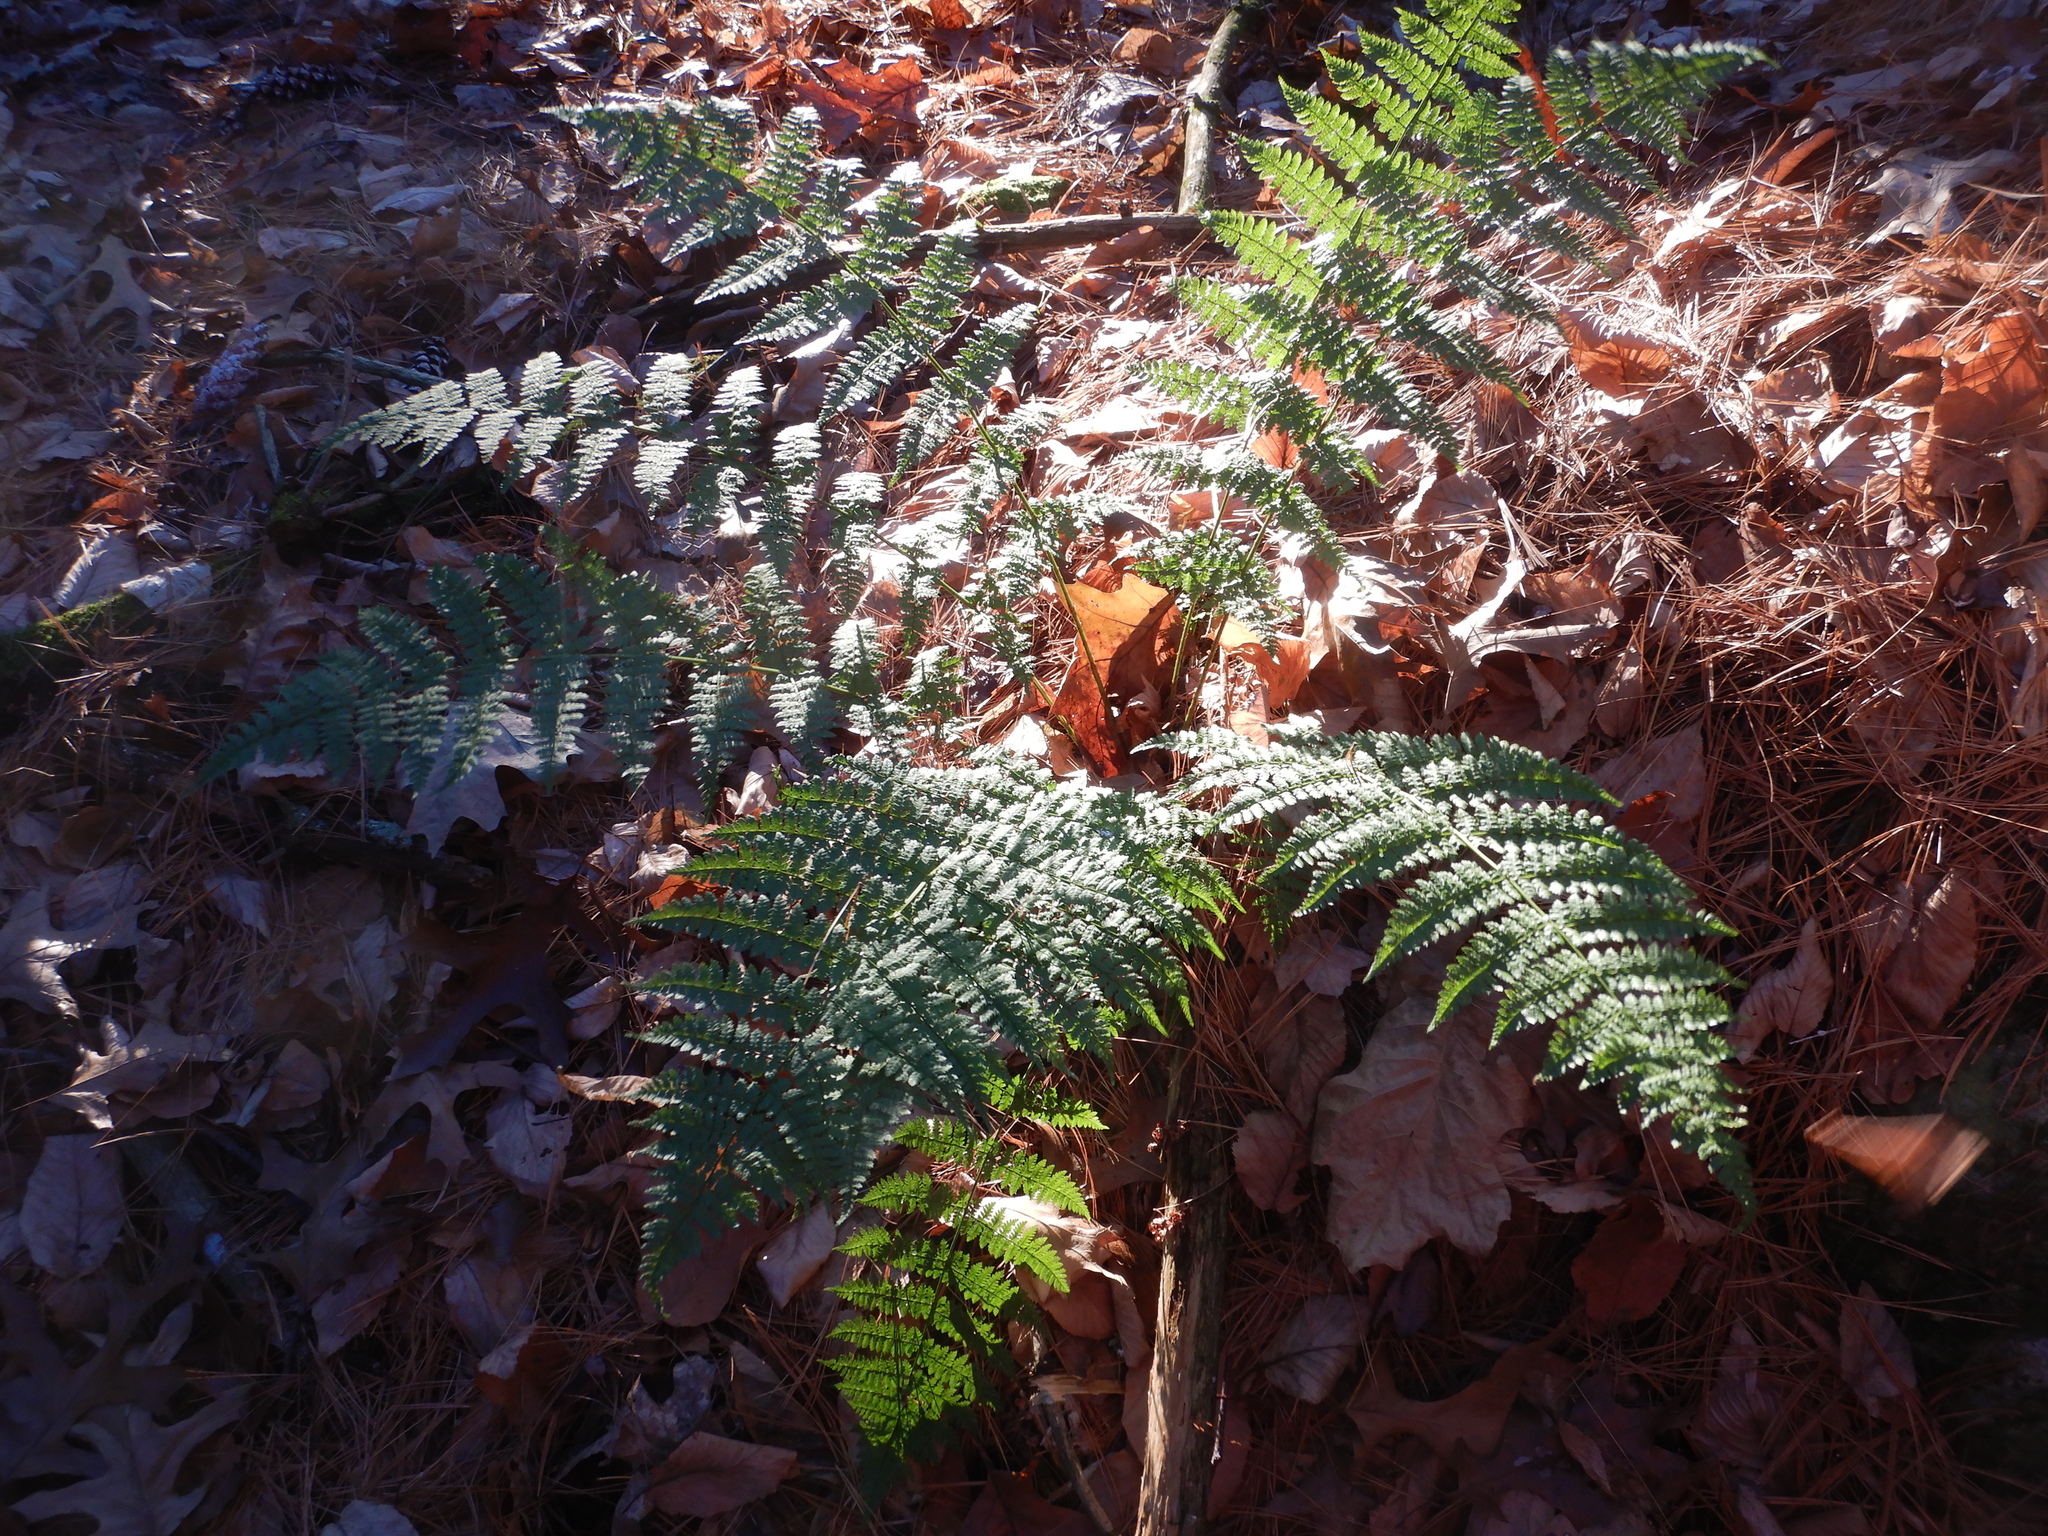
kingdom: Plantae
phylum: Tracheophyta
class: Polypodiopsida
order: Polypodiales
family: Dryopteridaceae
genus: Dryopteris
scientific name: Dryopteris intermedia
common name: Evergreen wood fern
